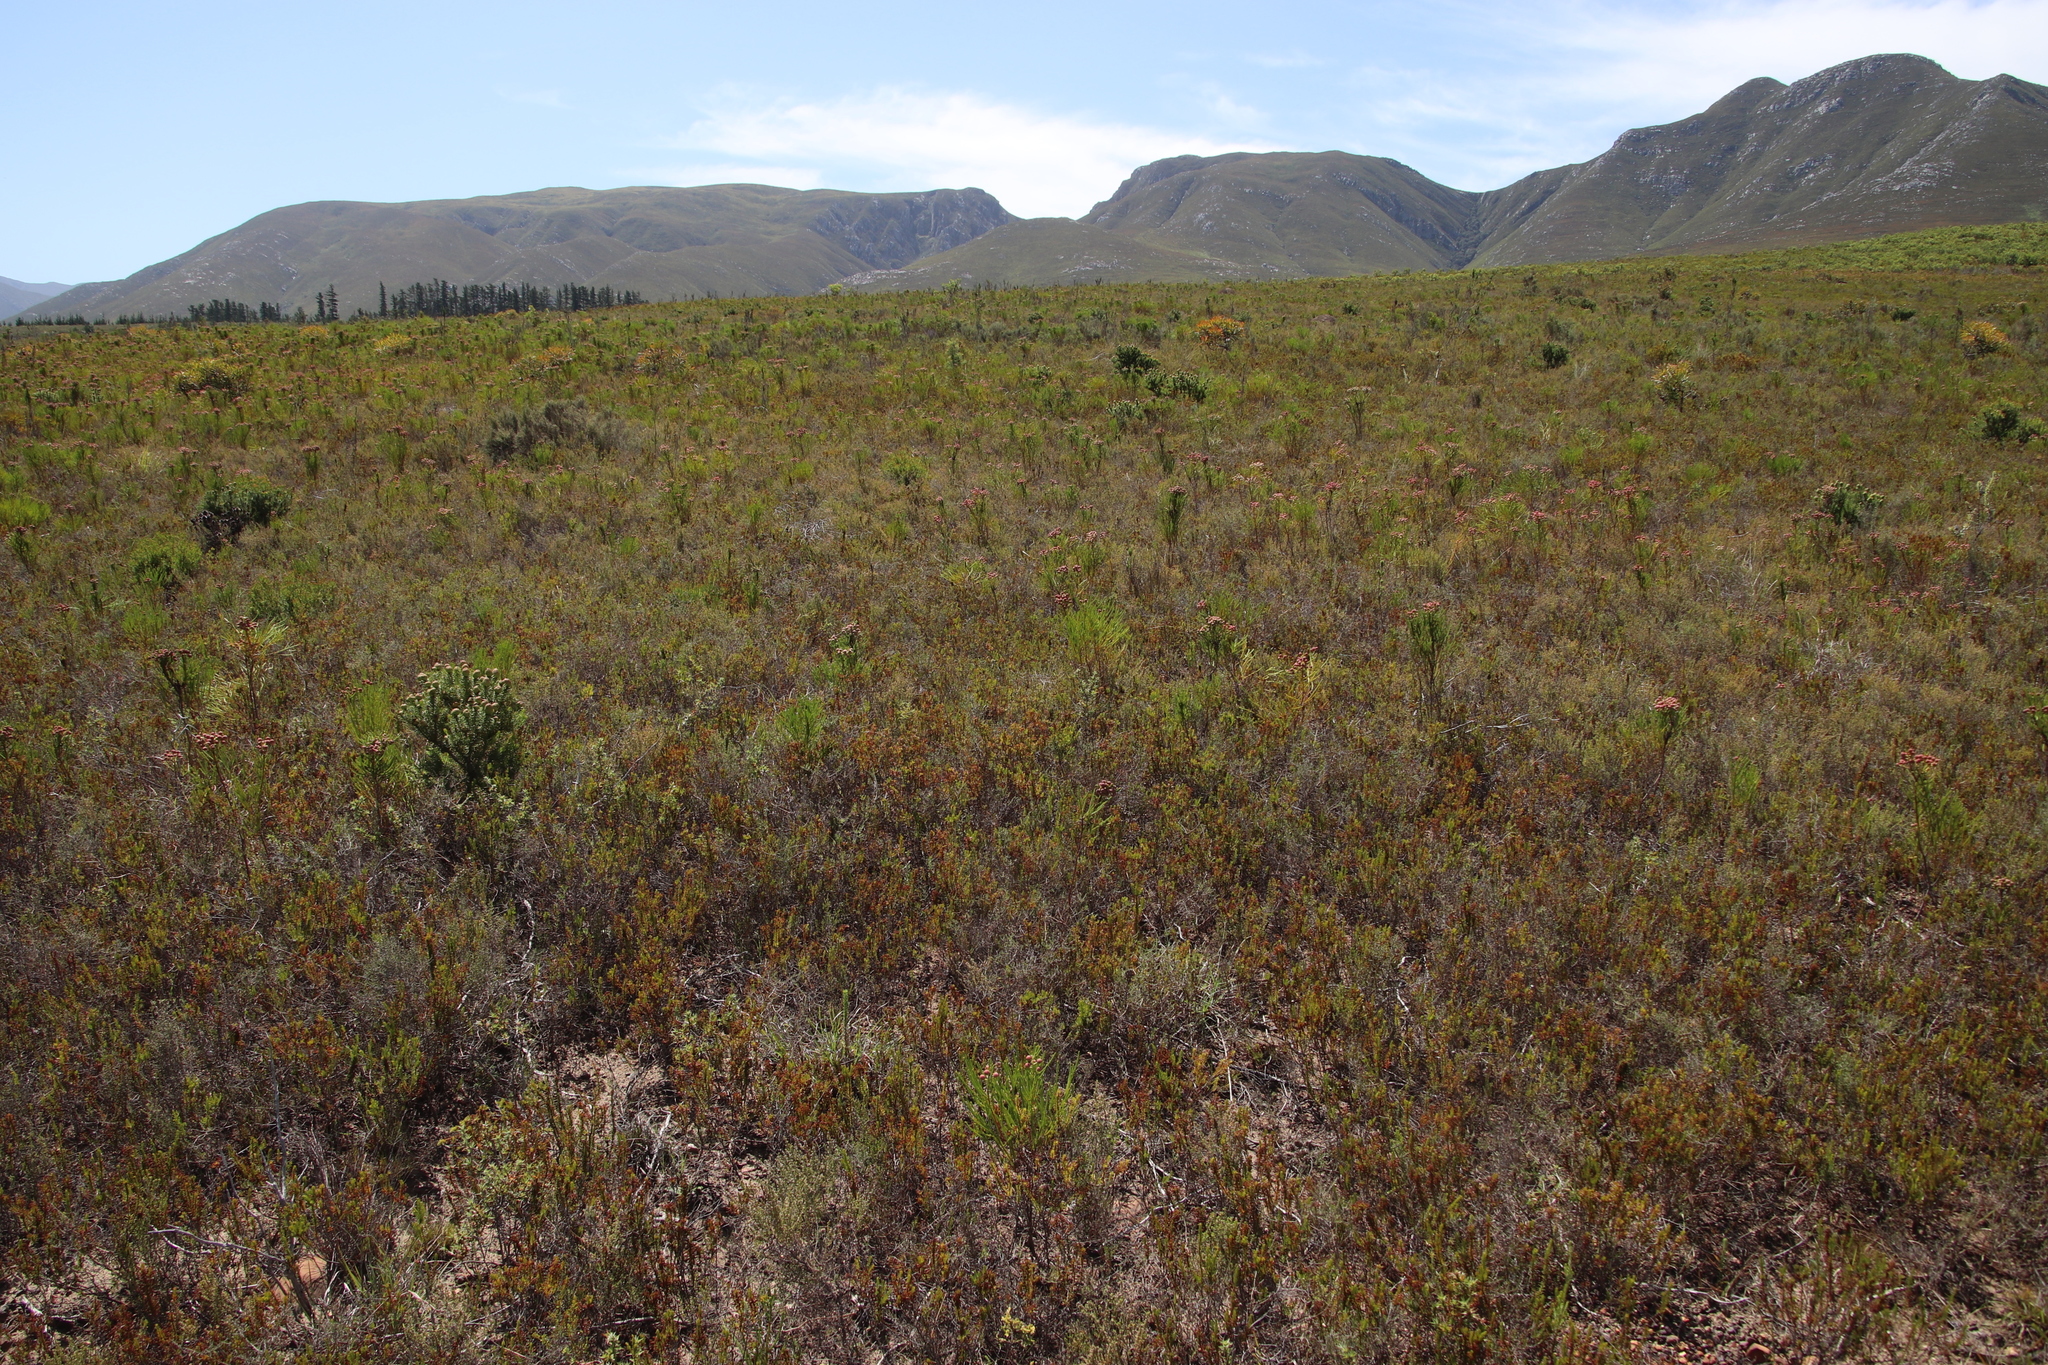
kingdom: Plantae
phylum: Tracheophyta
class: Magnoliopsida
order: Ericales
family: Ericaceae
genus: Erica
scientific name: Erica rubiginosa
